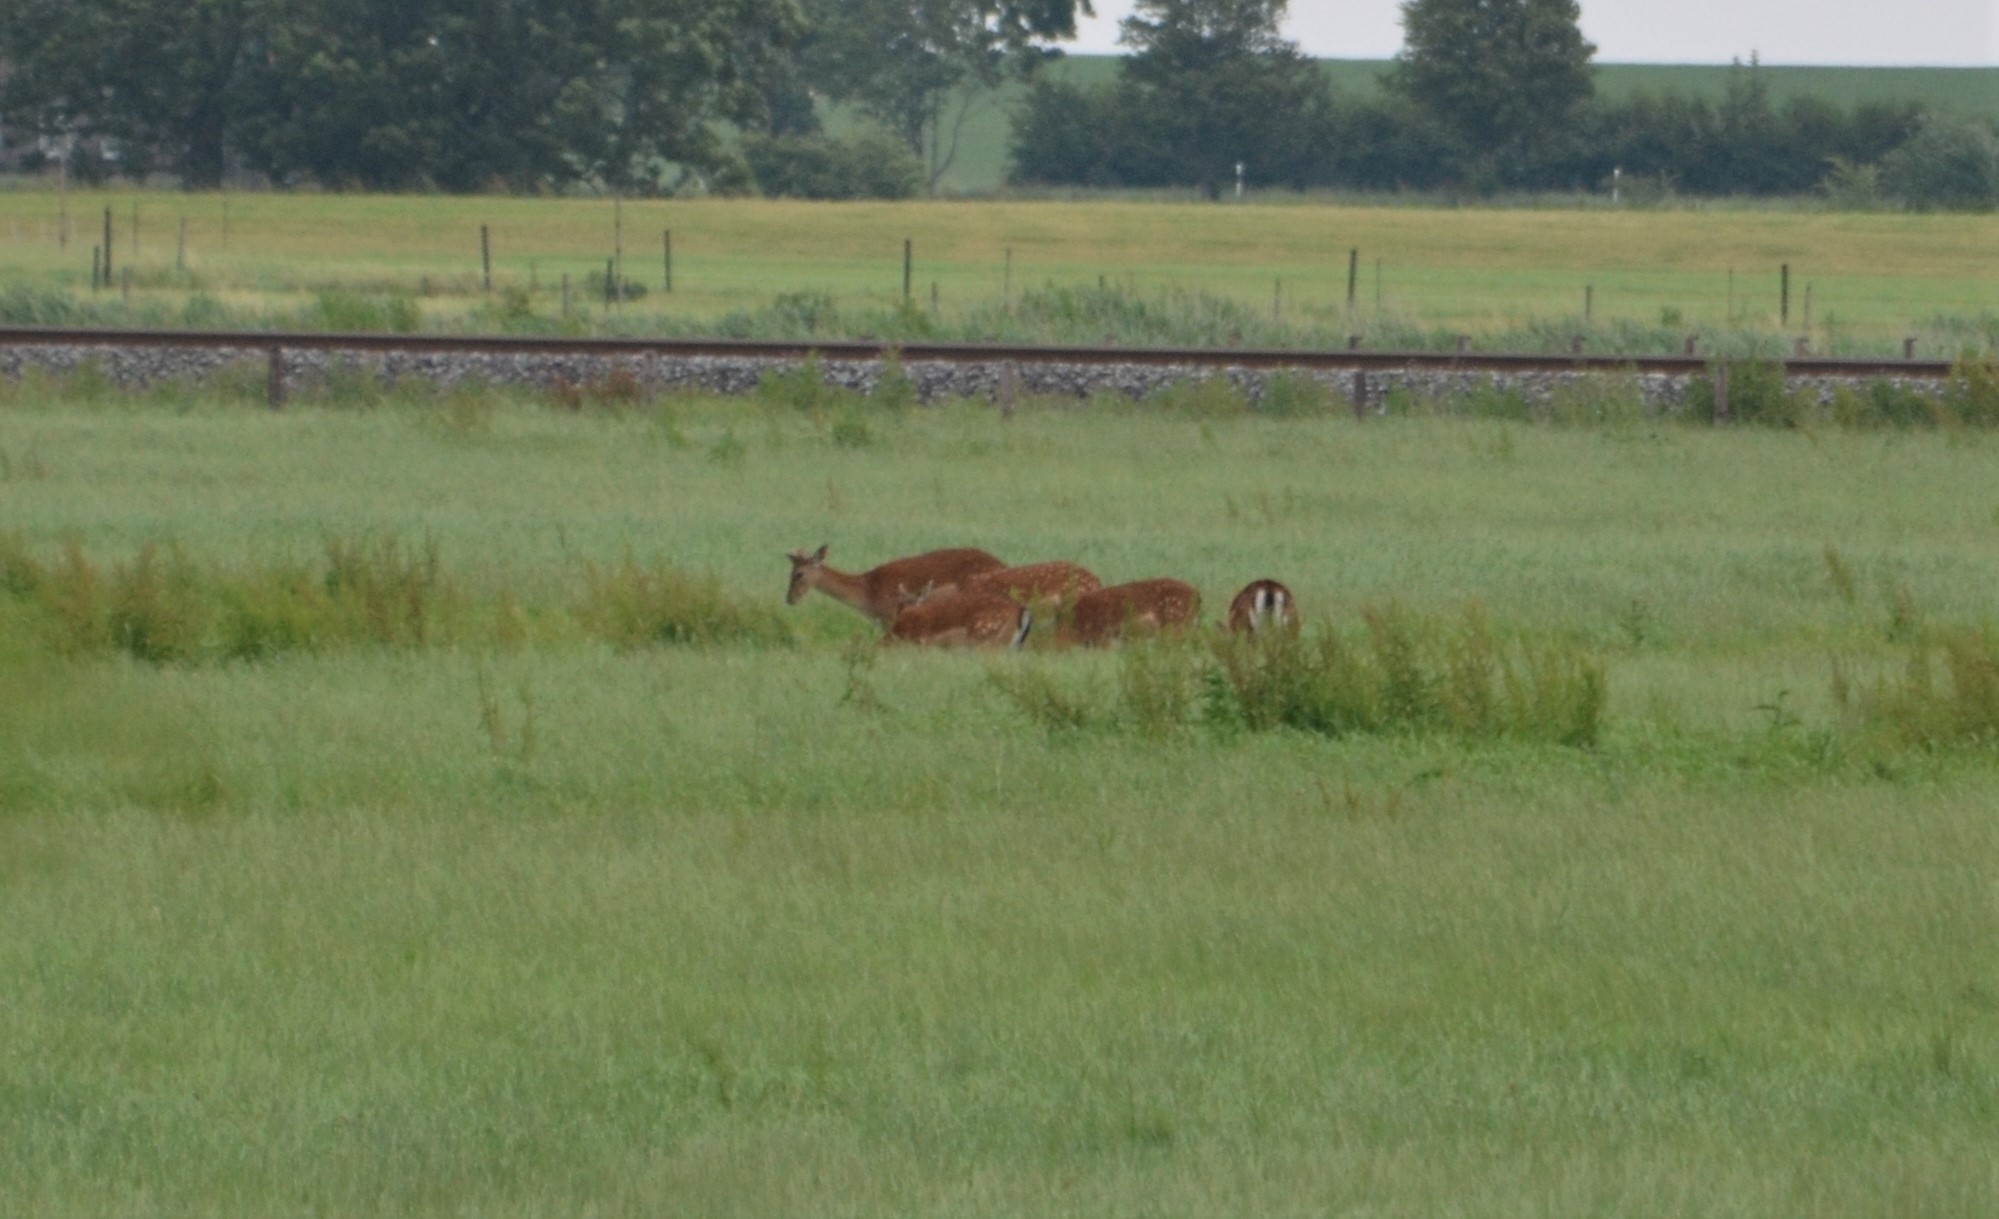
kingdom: Animalia
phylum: Chordata
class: Mammalia
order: Artiodactyla
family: Cervidae
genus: Dama
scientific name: Dama dama
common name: Fallow deer
